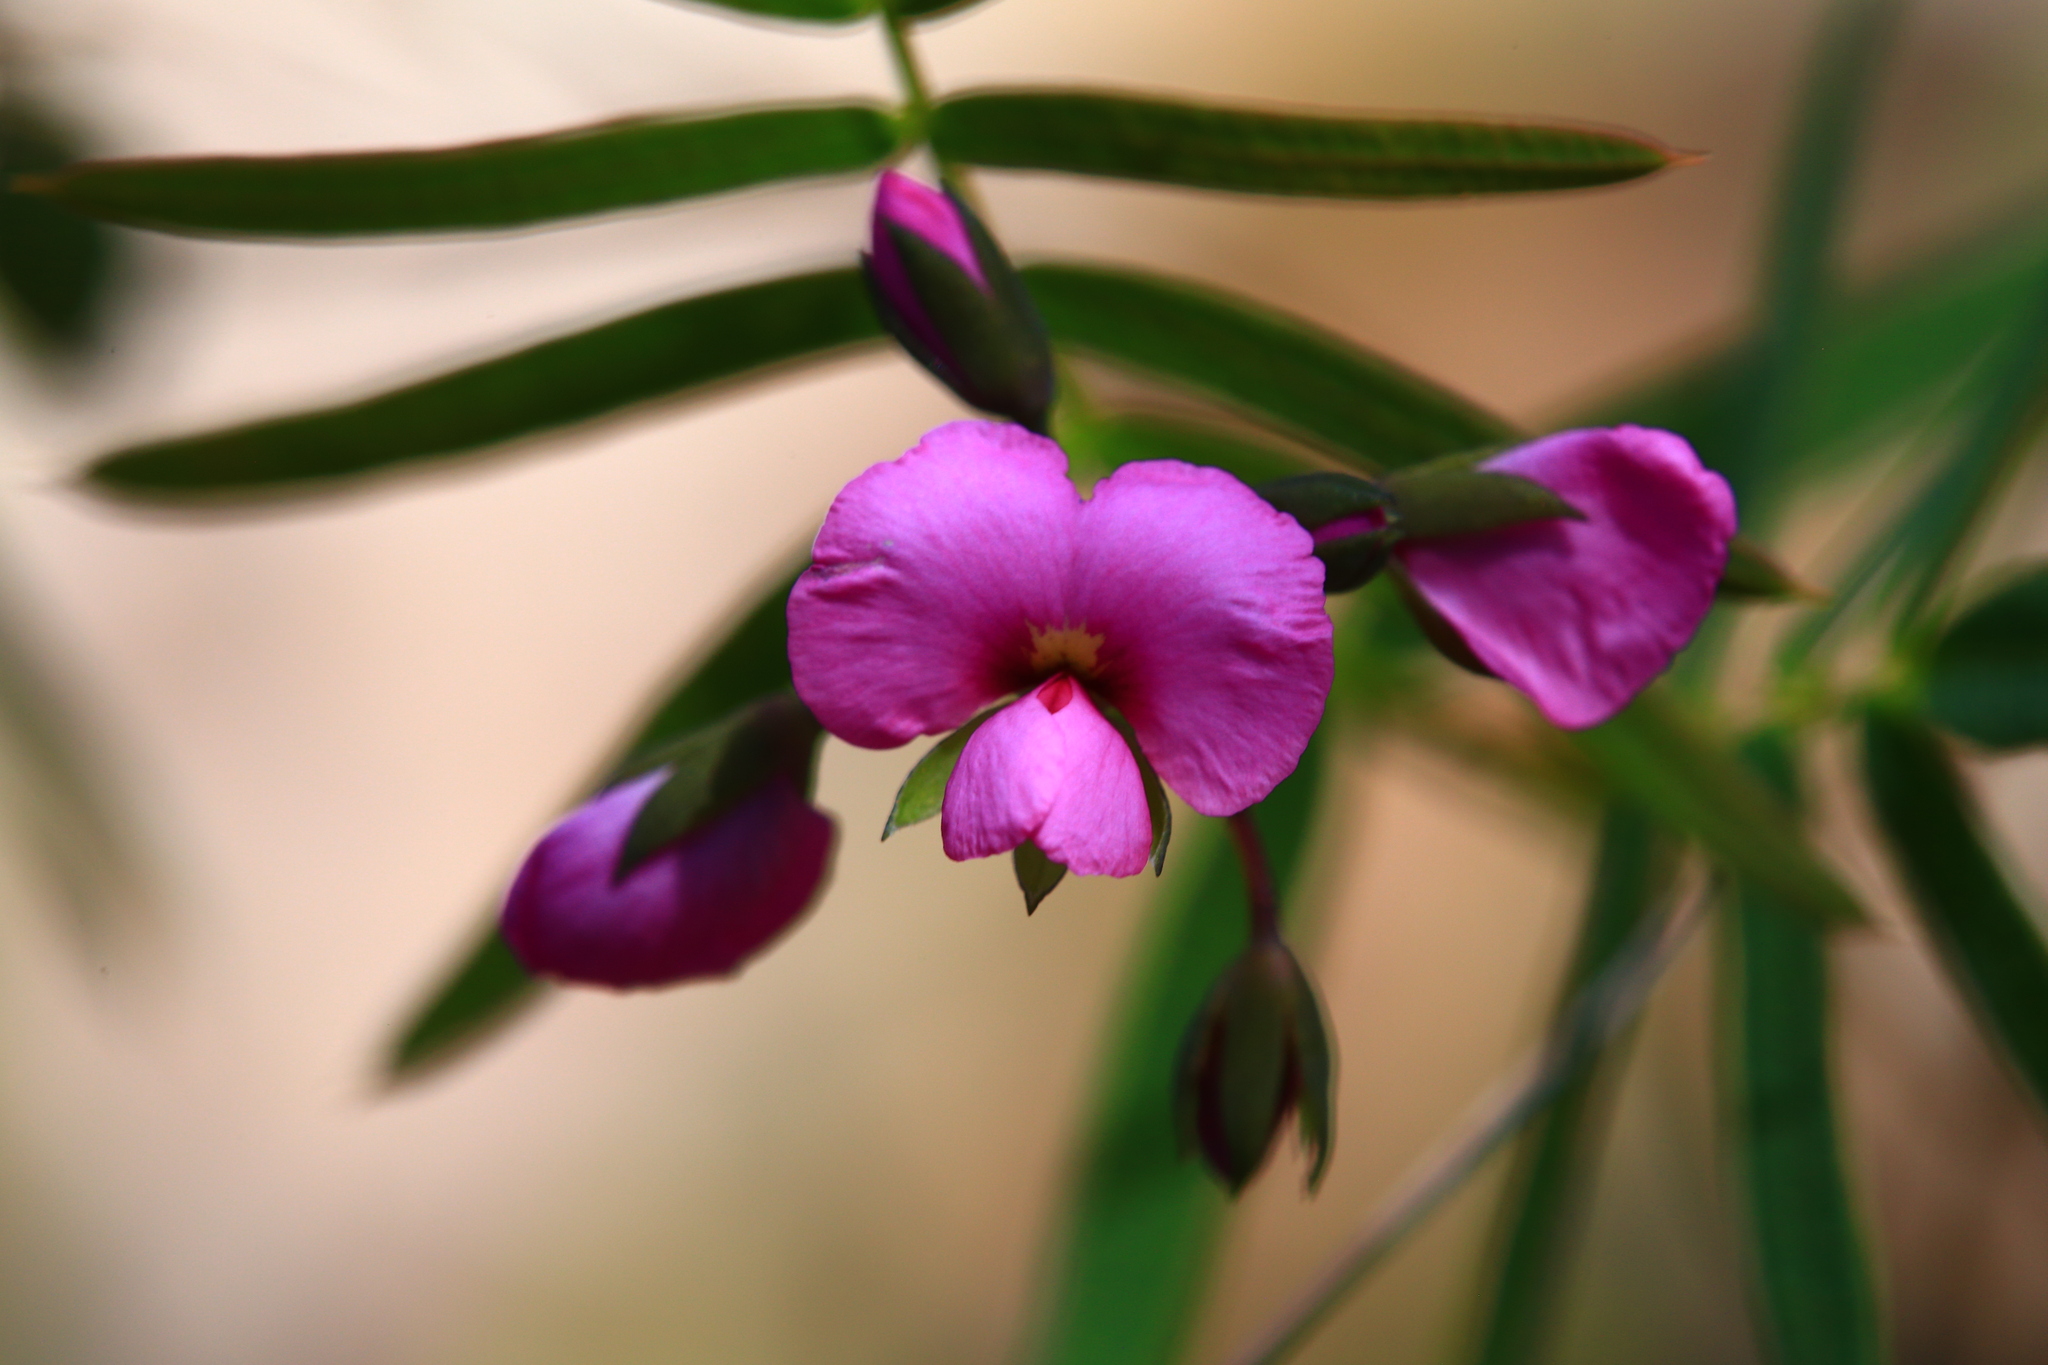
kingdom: Plantae
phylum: Tracheophyta
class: Magnoliopsida
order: Fabales
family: Fabaceae
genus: Gompholobium
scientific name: Gompholobium knightianum
